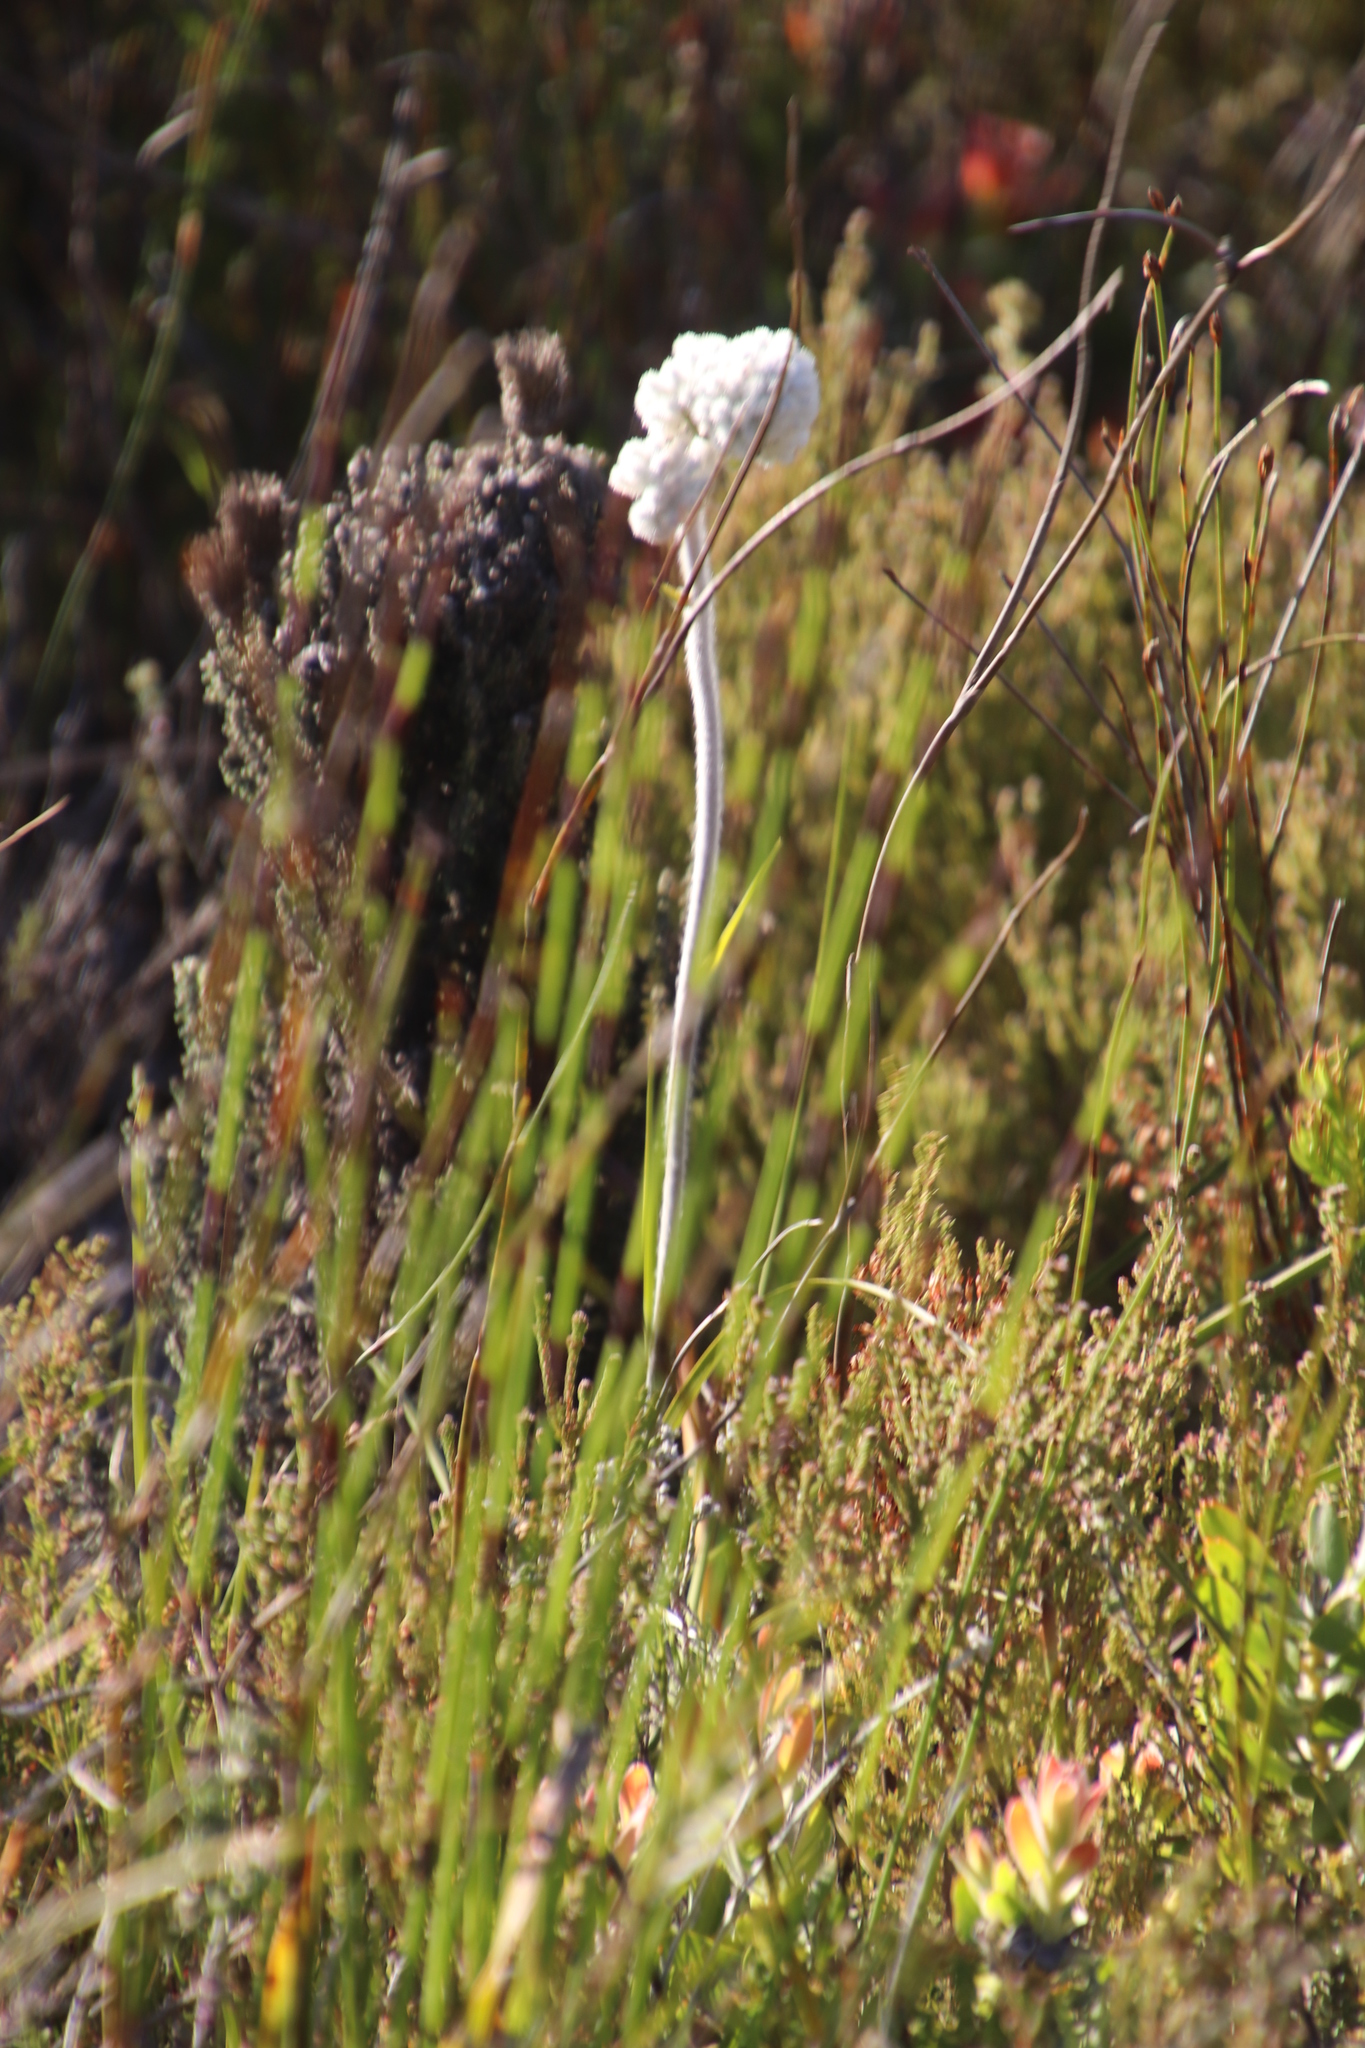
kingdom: Plantae
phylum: Tracheophyta
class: Liliopsida
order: Asparagales
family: Lanariaceae
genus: Lanaria
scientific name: Lanaria lanata
